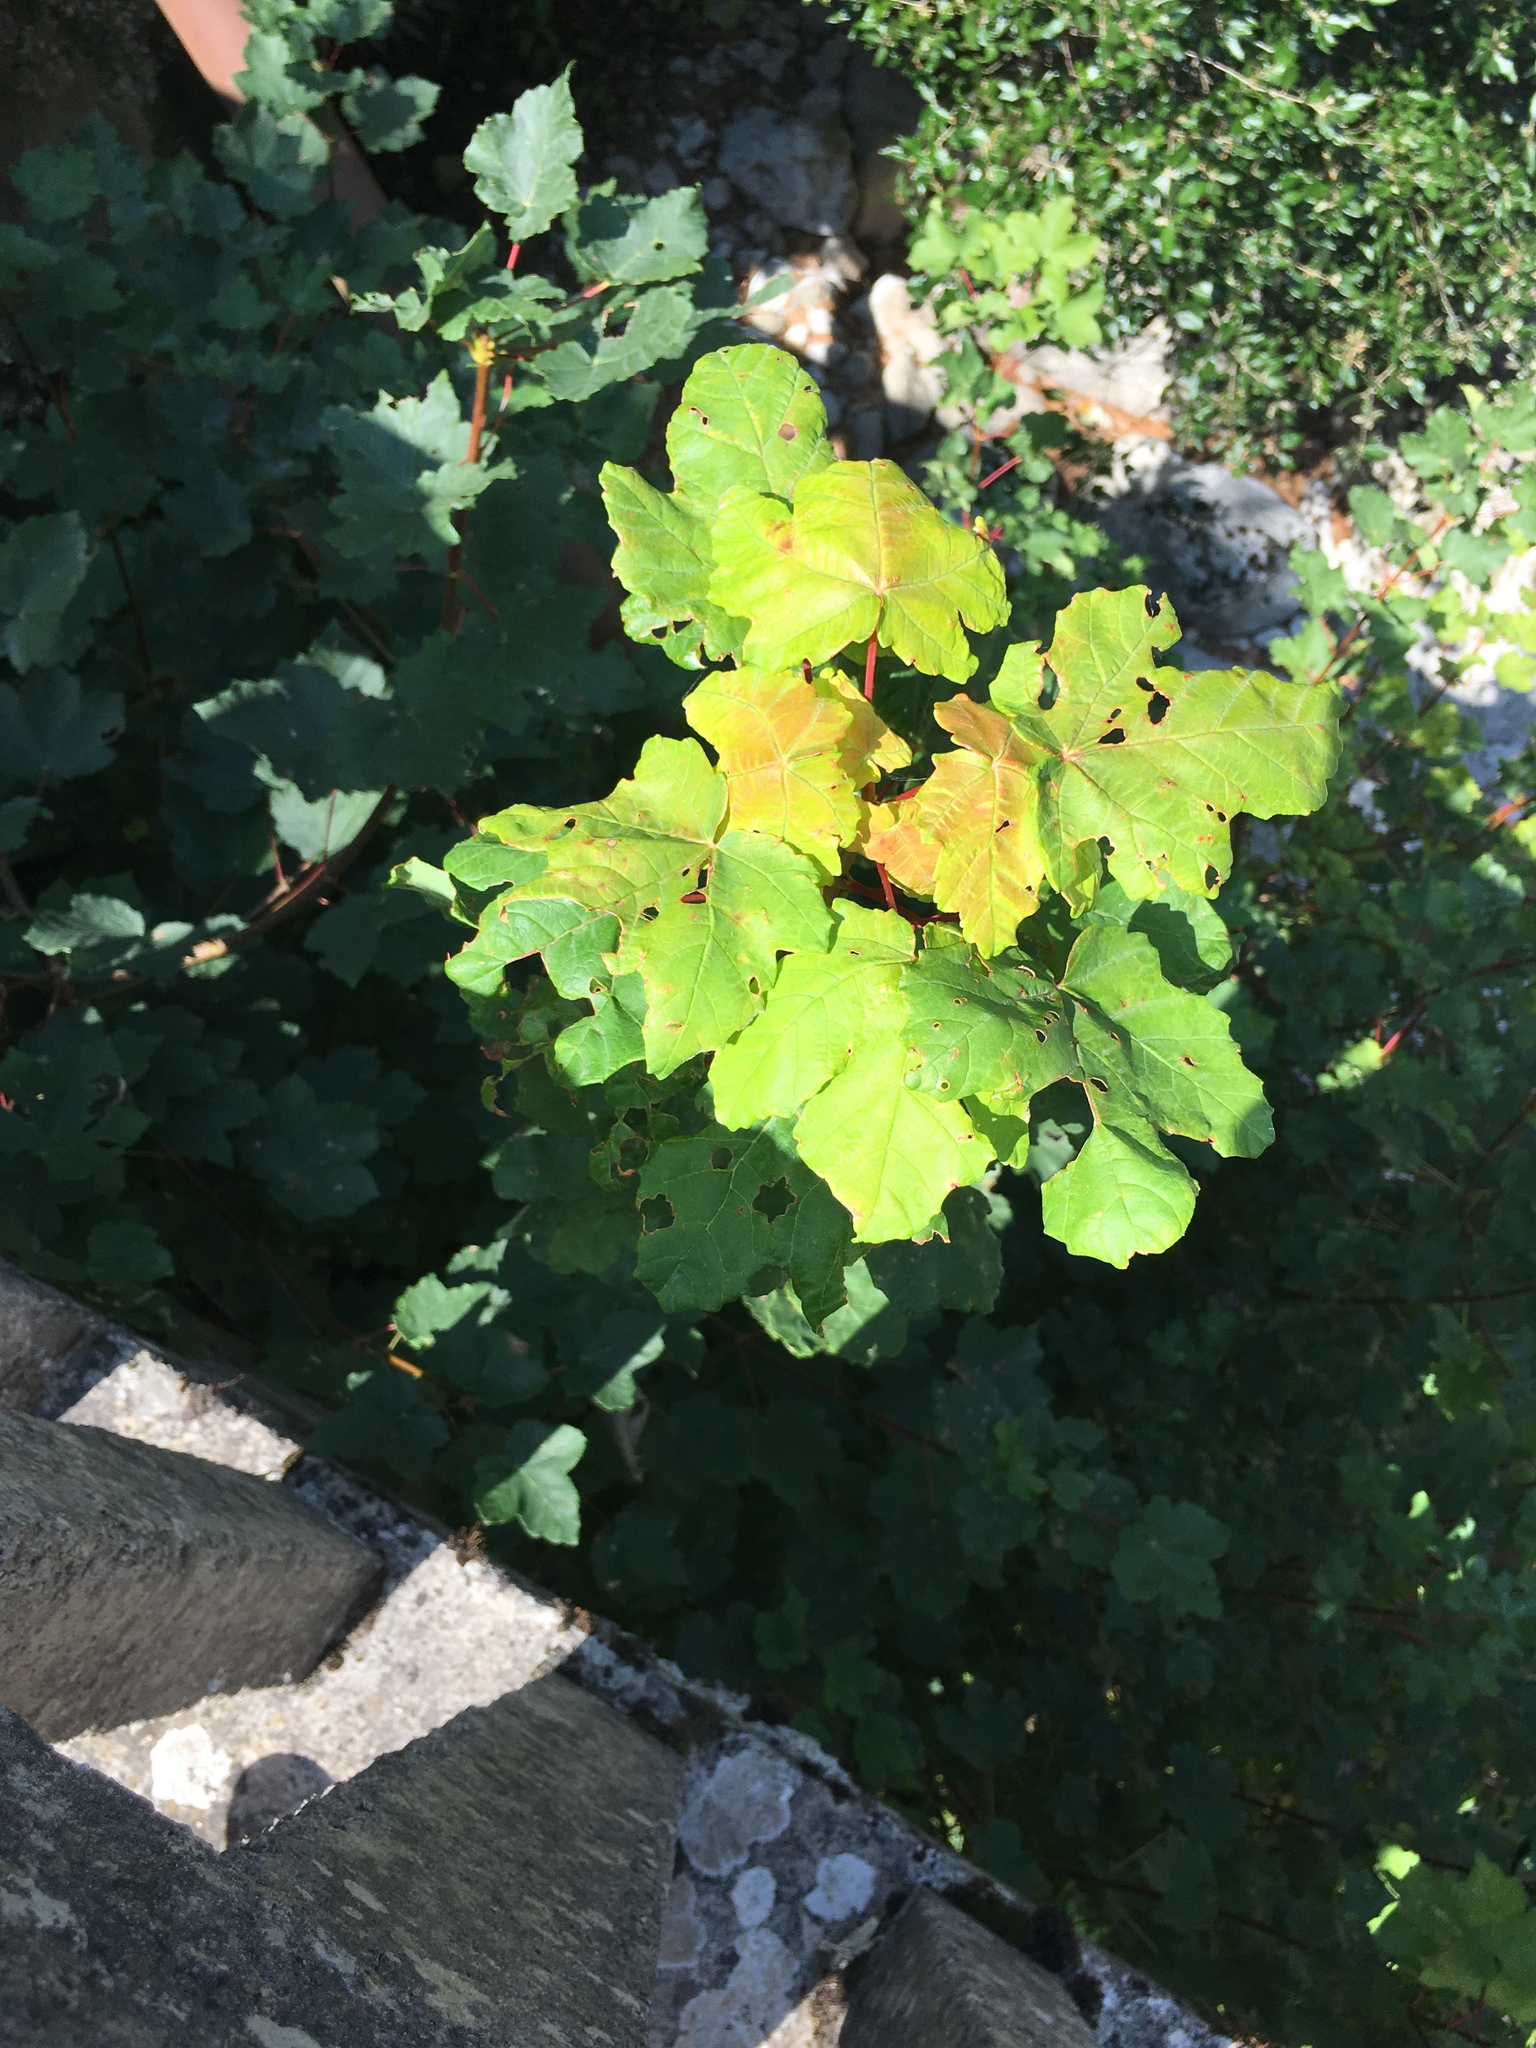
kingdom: Plantae
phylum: Tracheophyta
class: Magnoliopsida
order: Sapindales
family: Sapindaceae
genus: Acer
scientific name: Acer pseudoplatanus
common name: Sycamore
